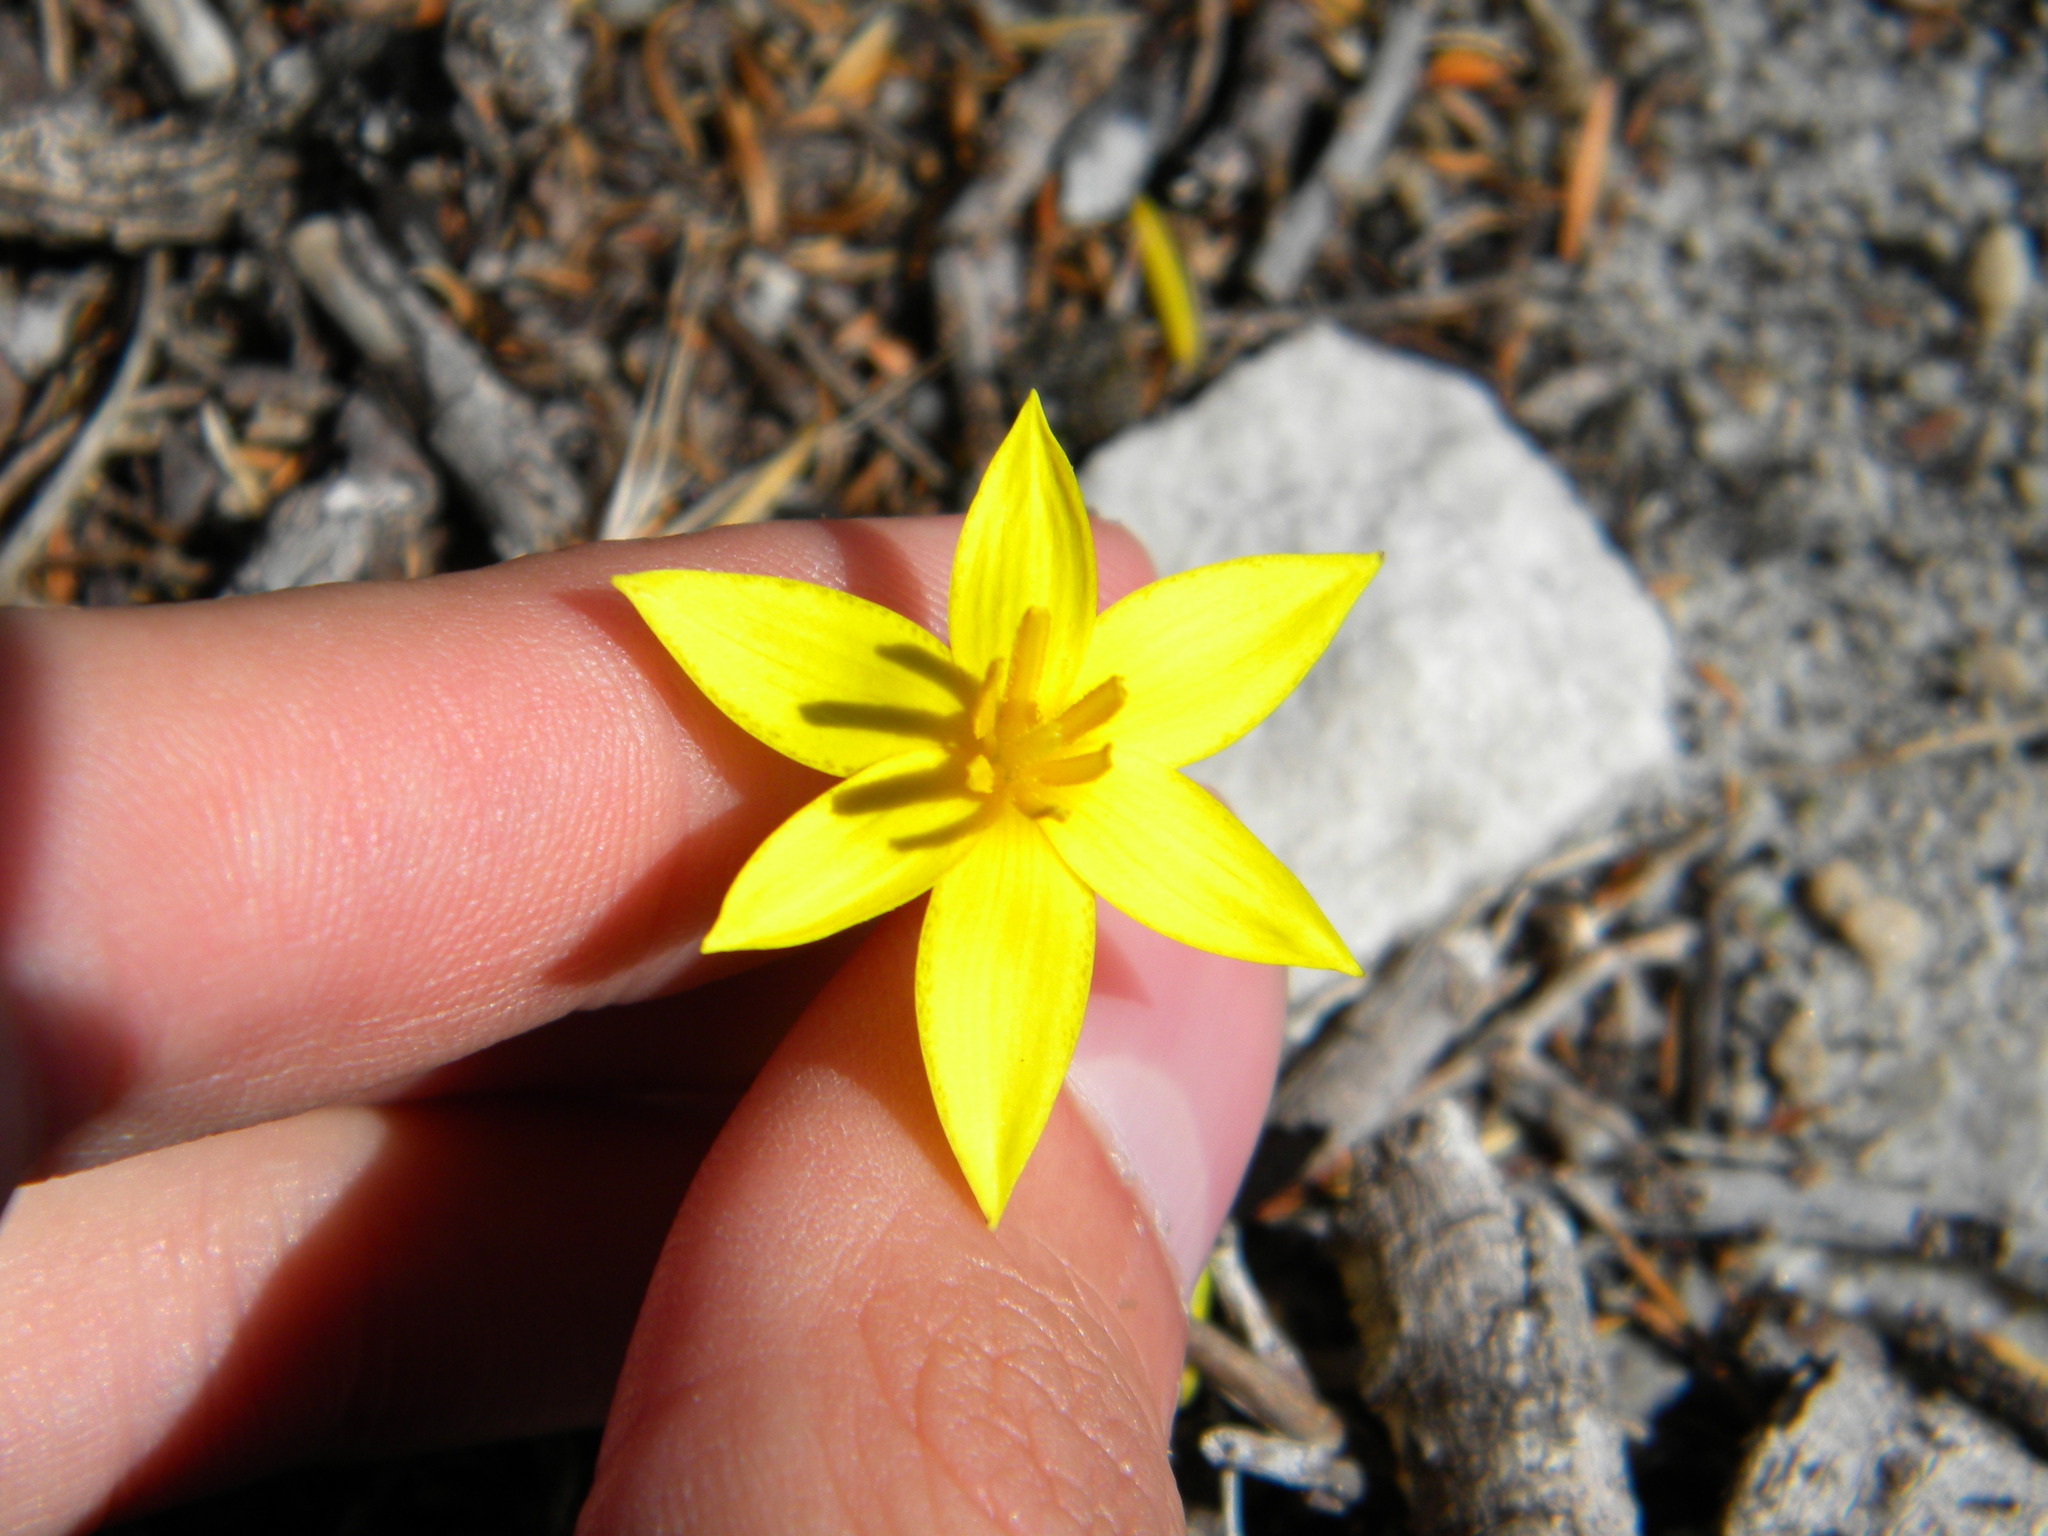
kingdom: Plantae
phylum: Tracheophyta
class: Liliopsida
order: Asparagales
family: Hypoxidaceae
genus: Empodium
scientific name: Empodium plicatum
